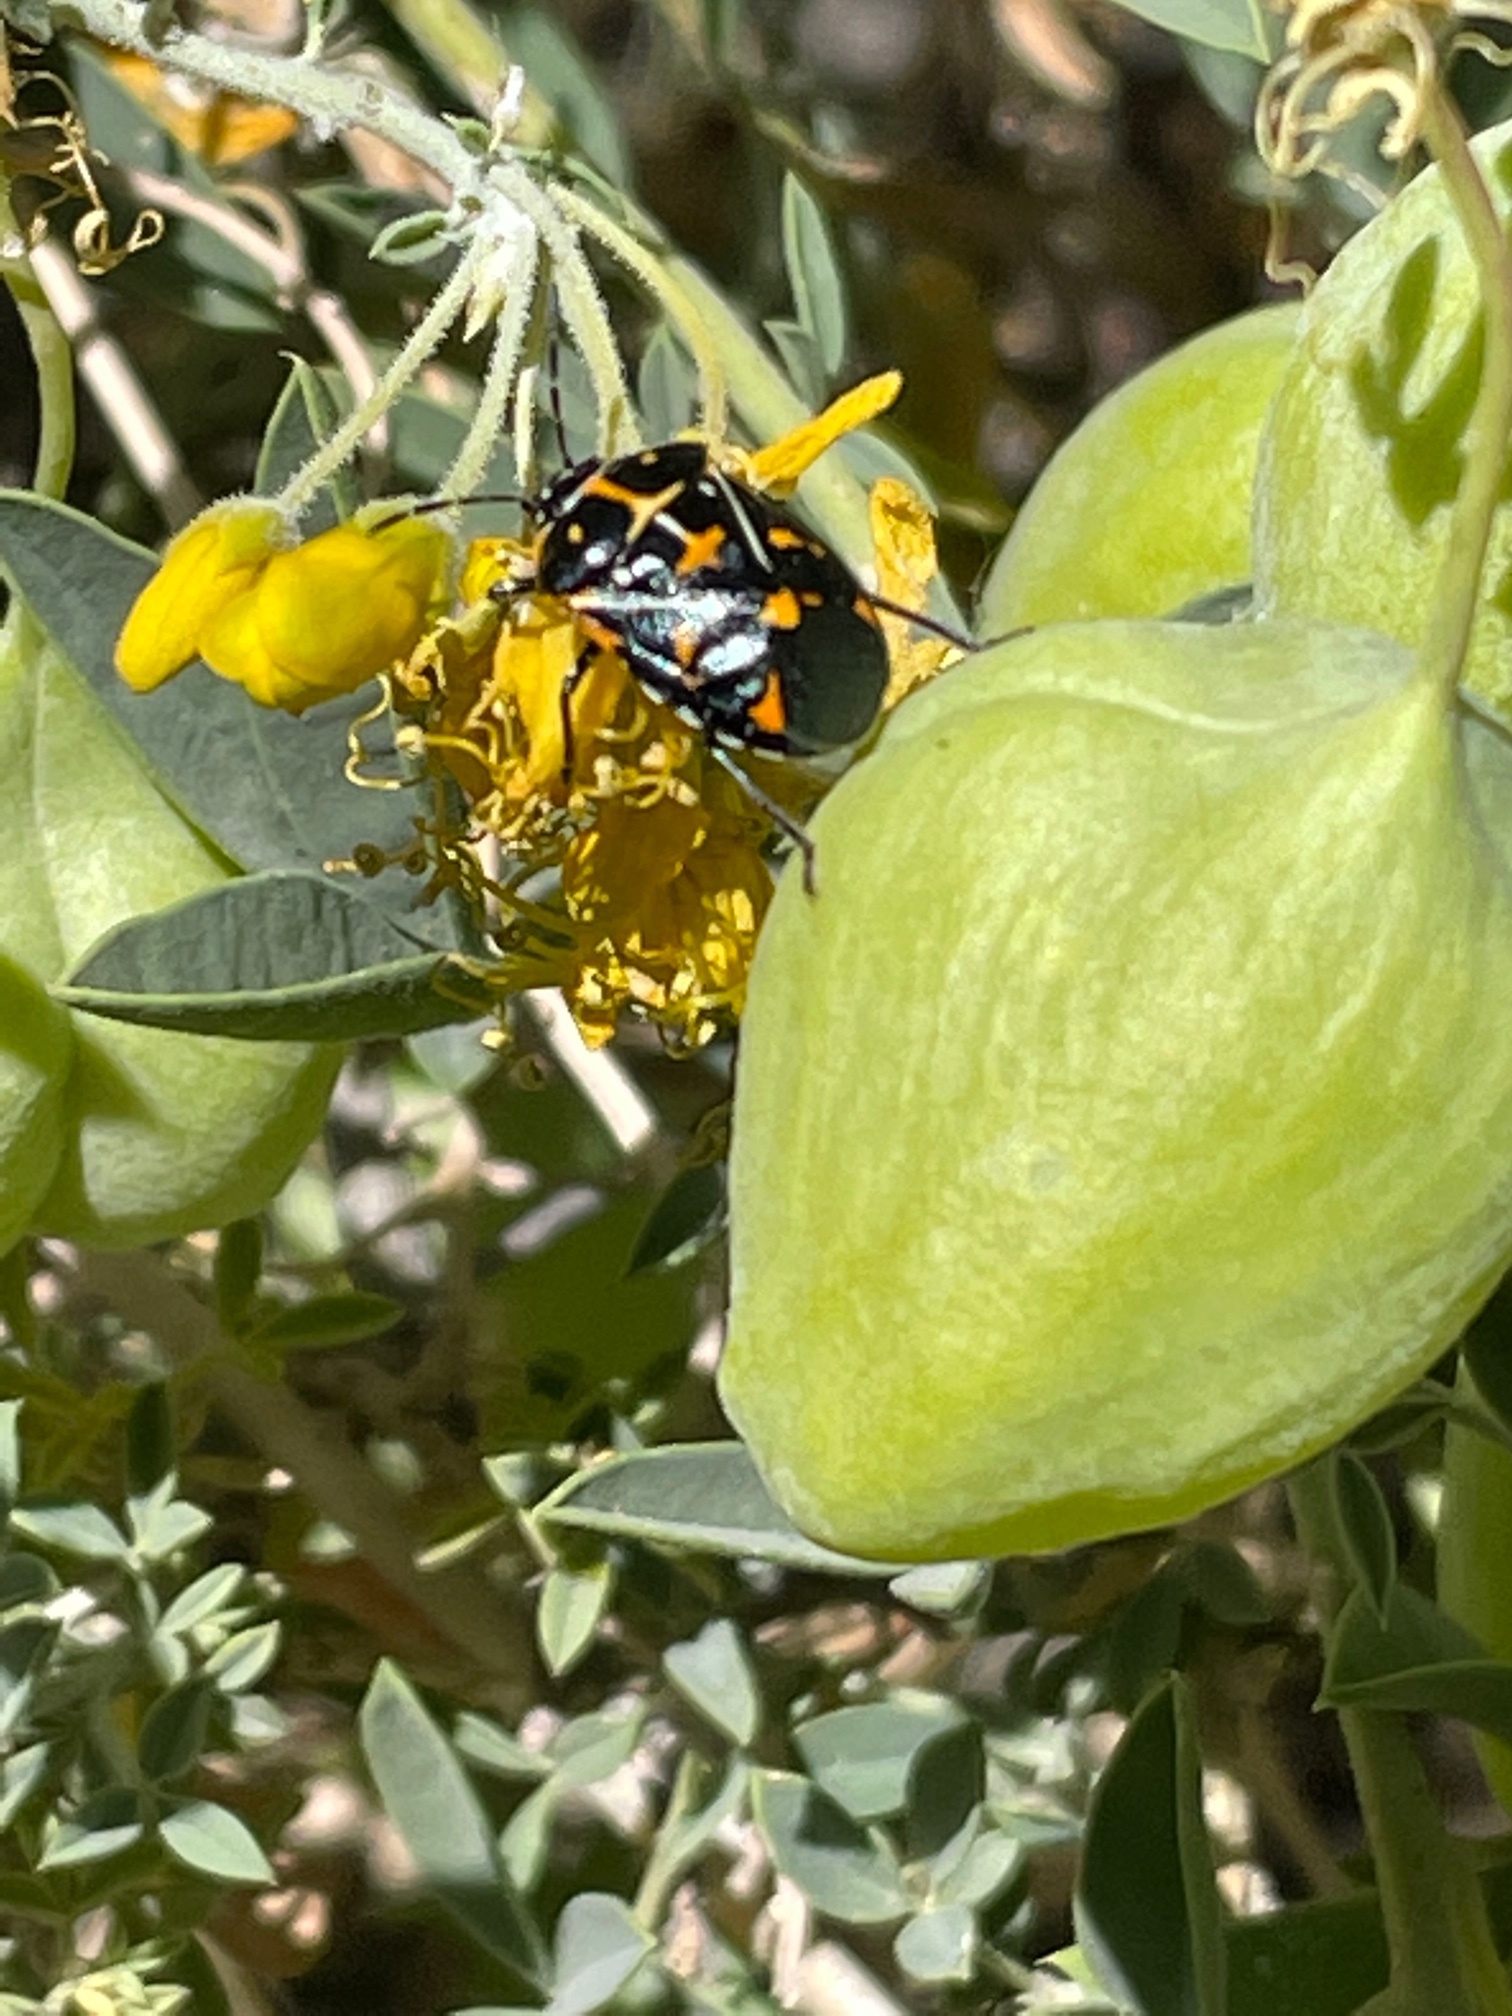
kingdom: Animalia
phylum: Arthropoda
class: Insecta
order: Hemiptera
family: Pentatomidae
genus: Murgantia
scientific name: Murgantia histrionica
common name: Harlequin bug
